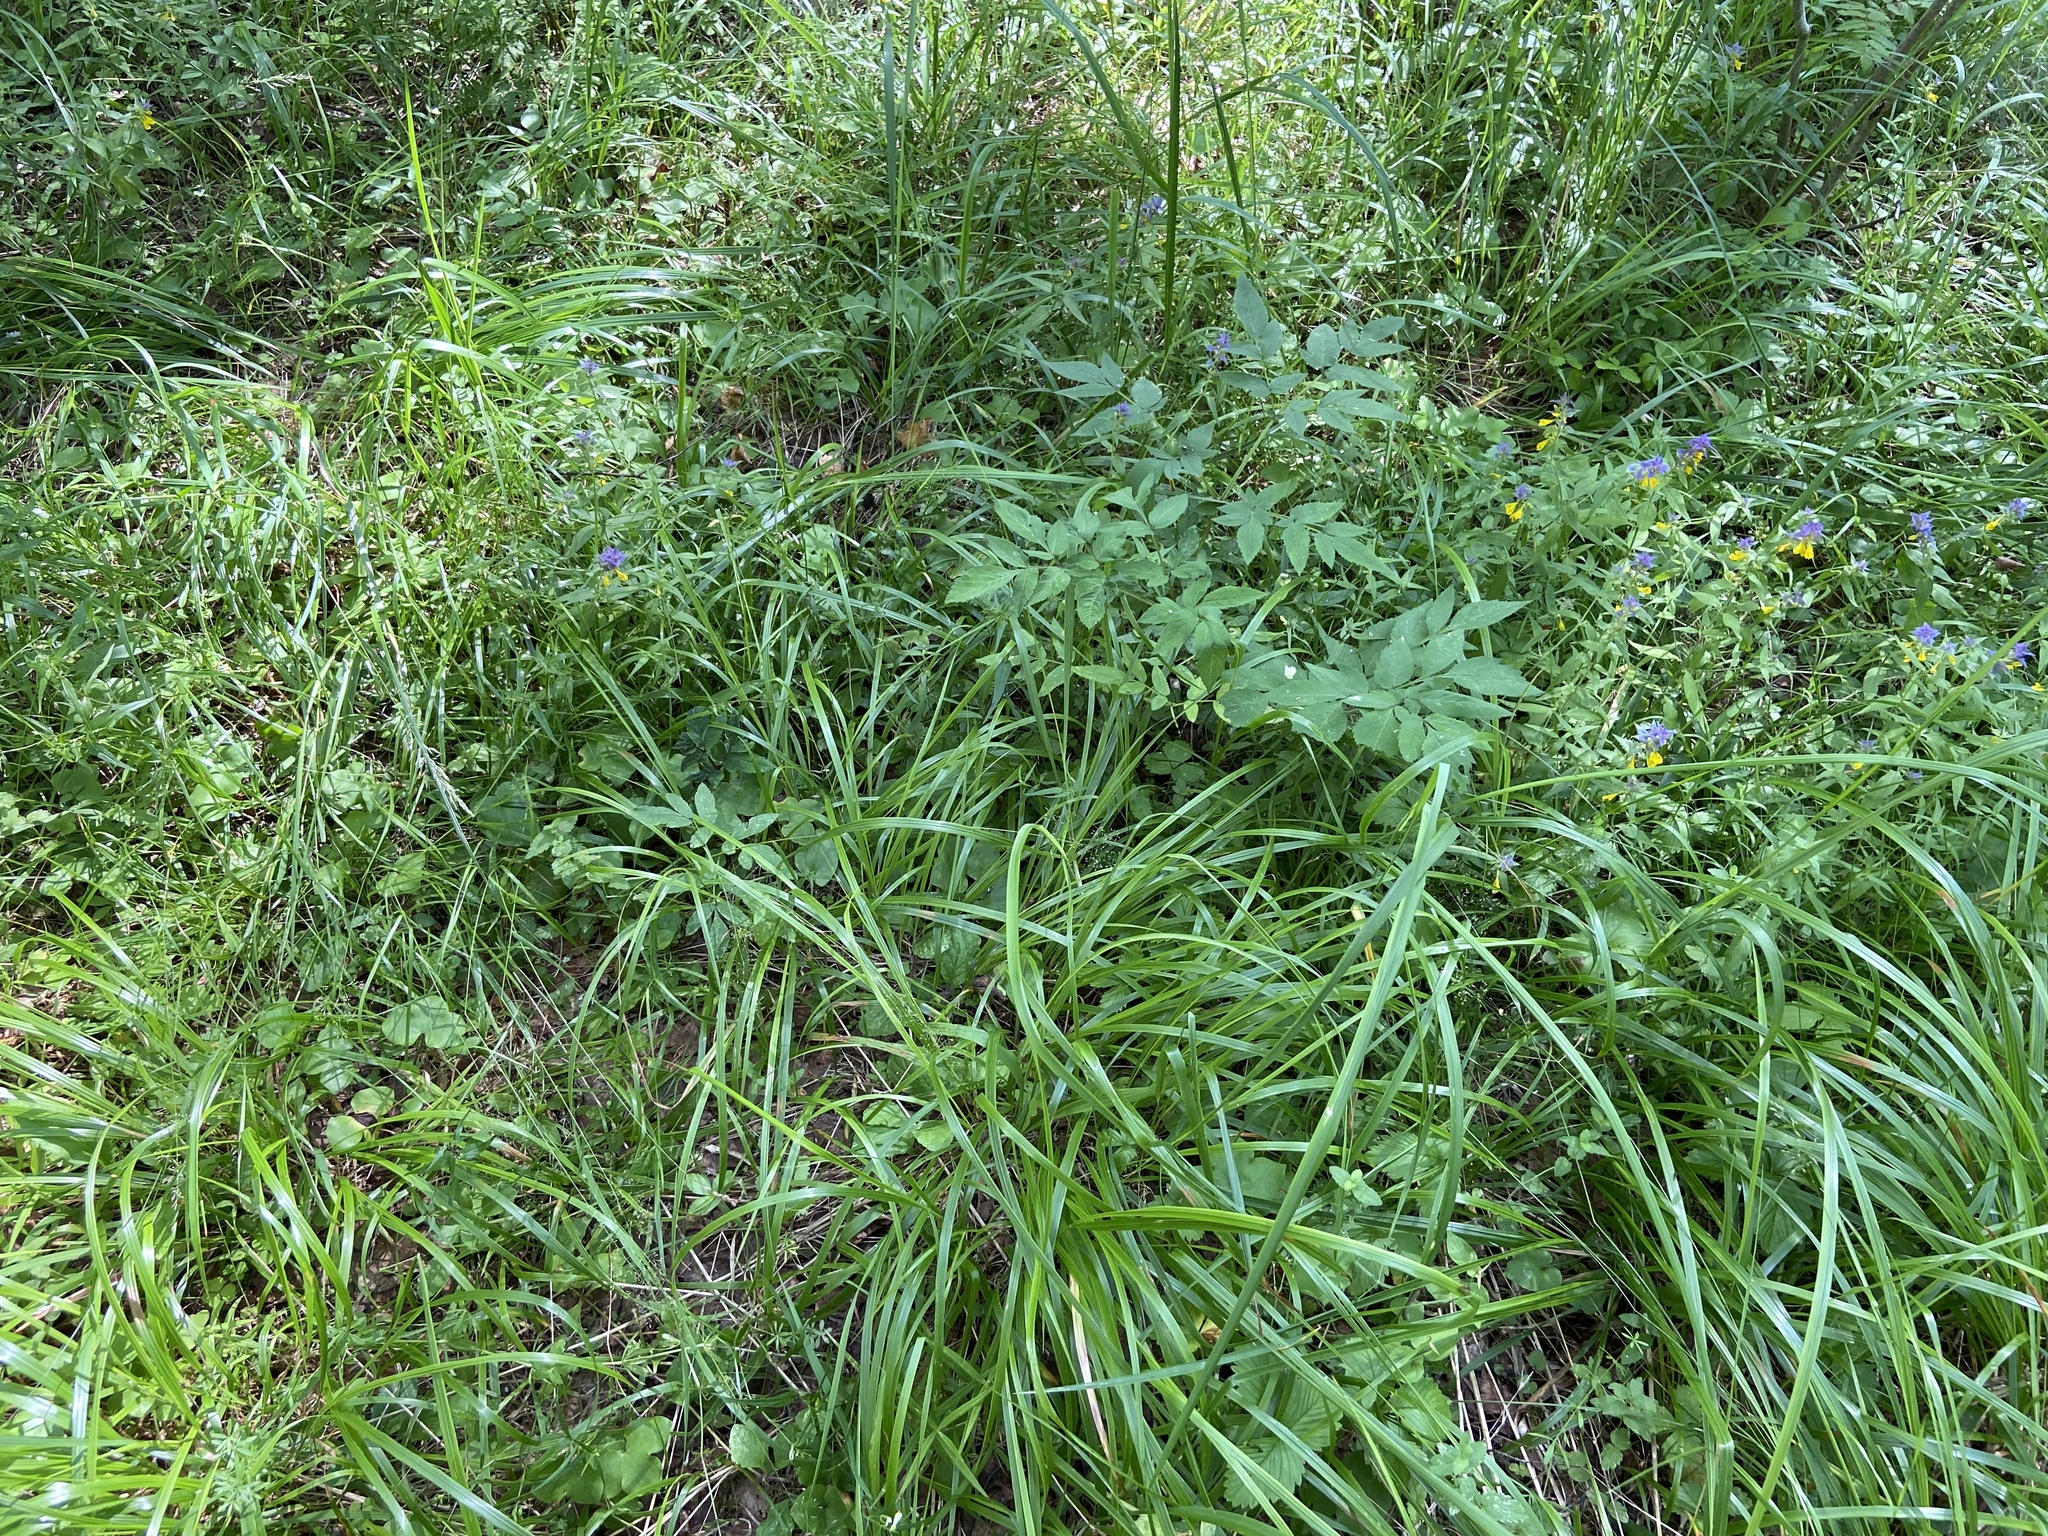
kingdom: Plantae
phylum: Tracheophyta
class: Liliopsida
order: Poales
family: Poaceae
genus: Calamagrostis
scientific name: Calamagrostis arundinacea
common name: Metskastik
